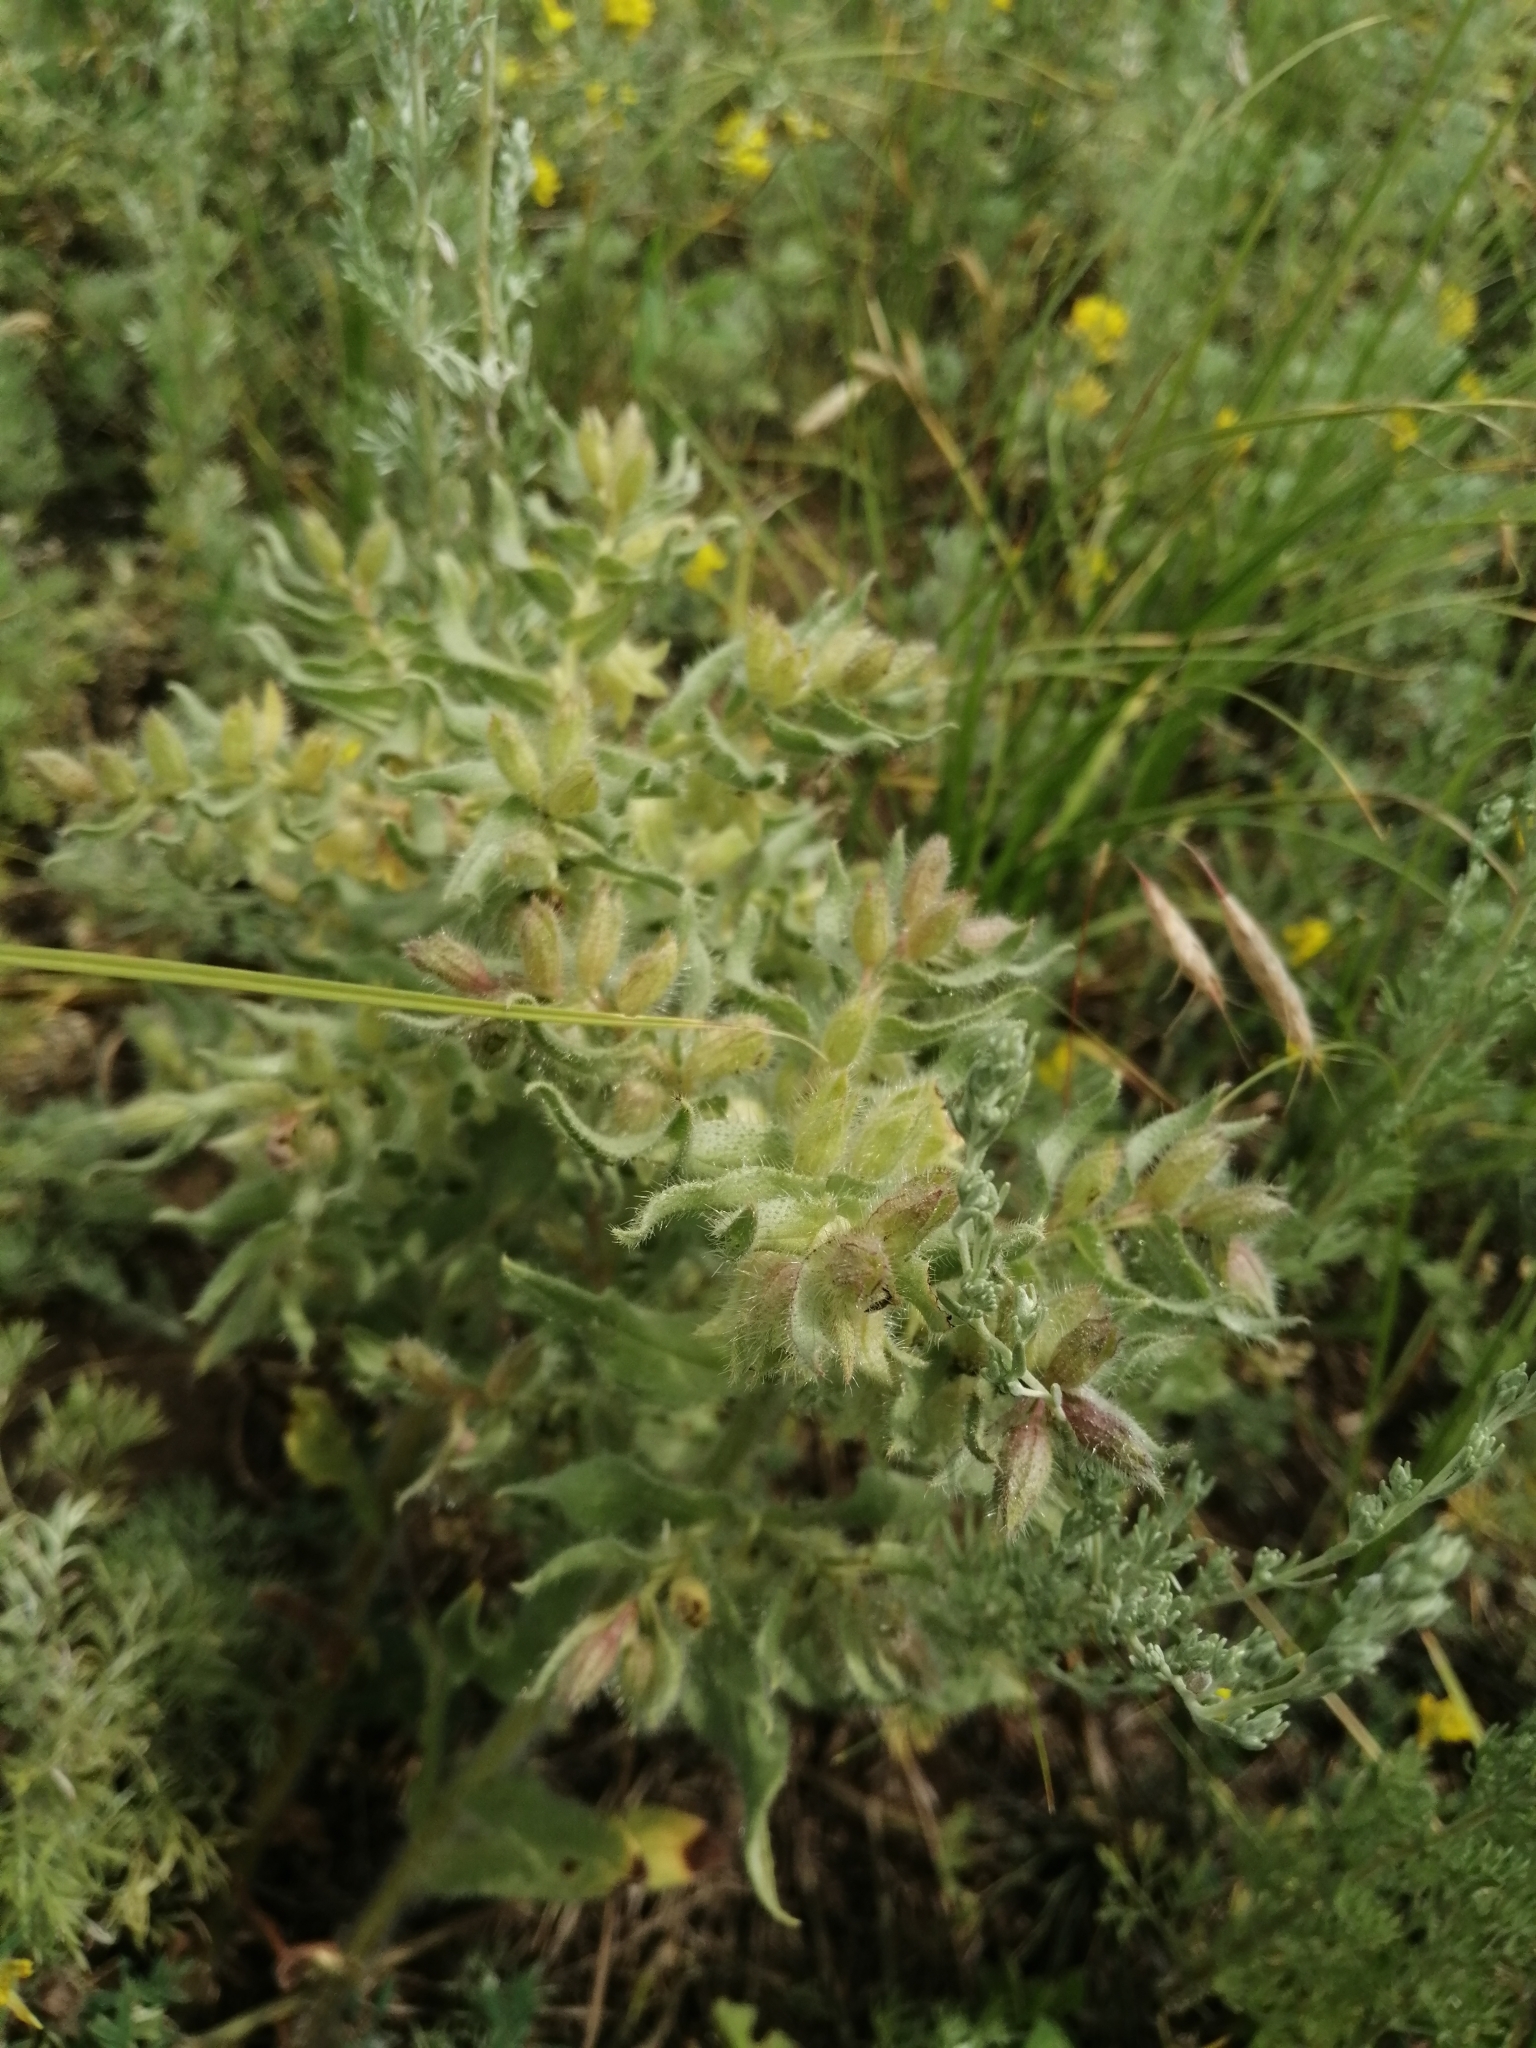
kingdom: Plantae
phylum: Tracheophyta
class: Magnoliopsida
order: Boraginales
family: Boraginaceae
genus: Nonea
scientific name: Nonea pulla
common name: Brown nonea
